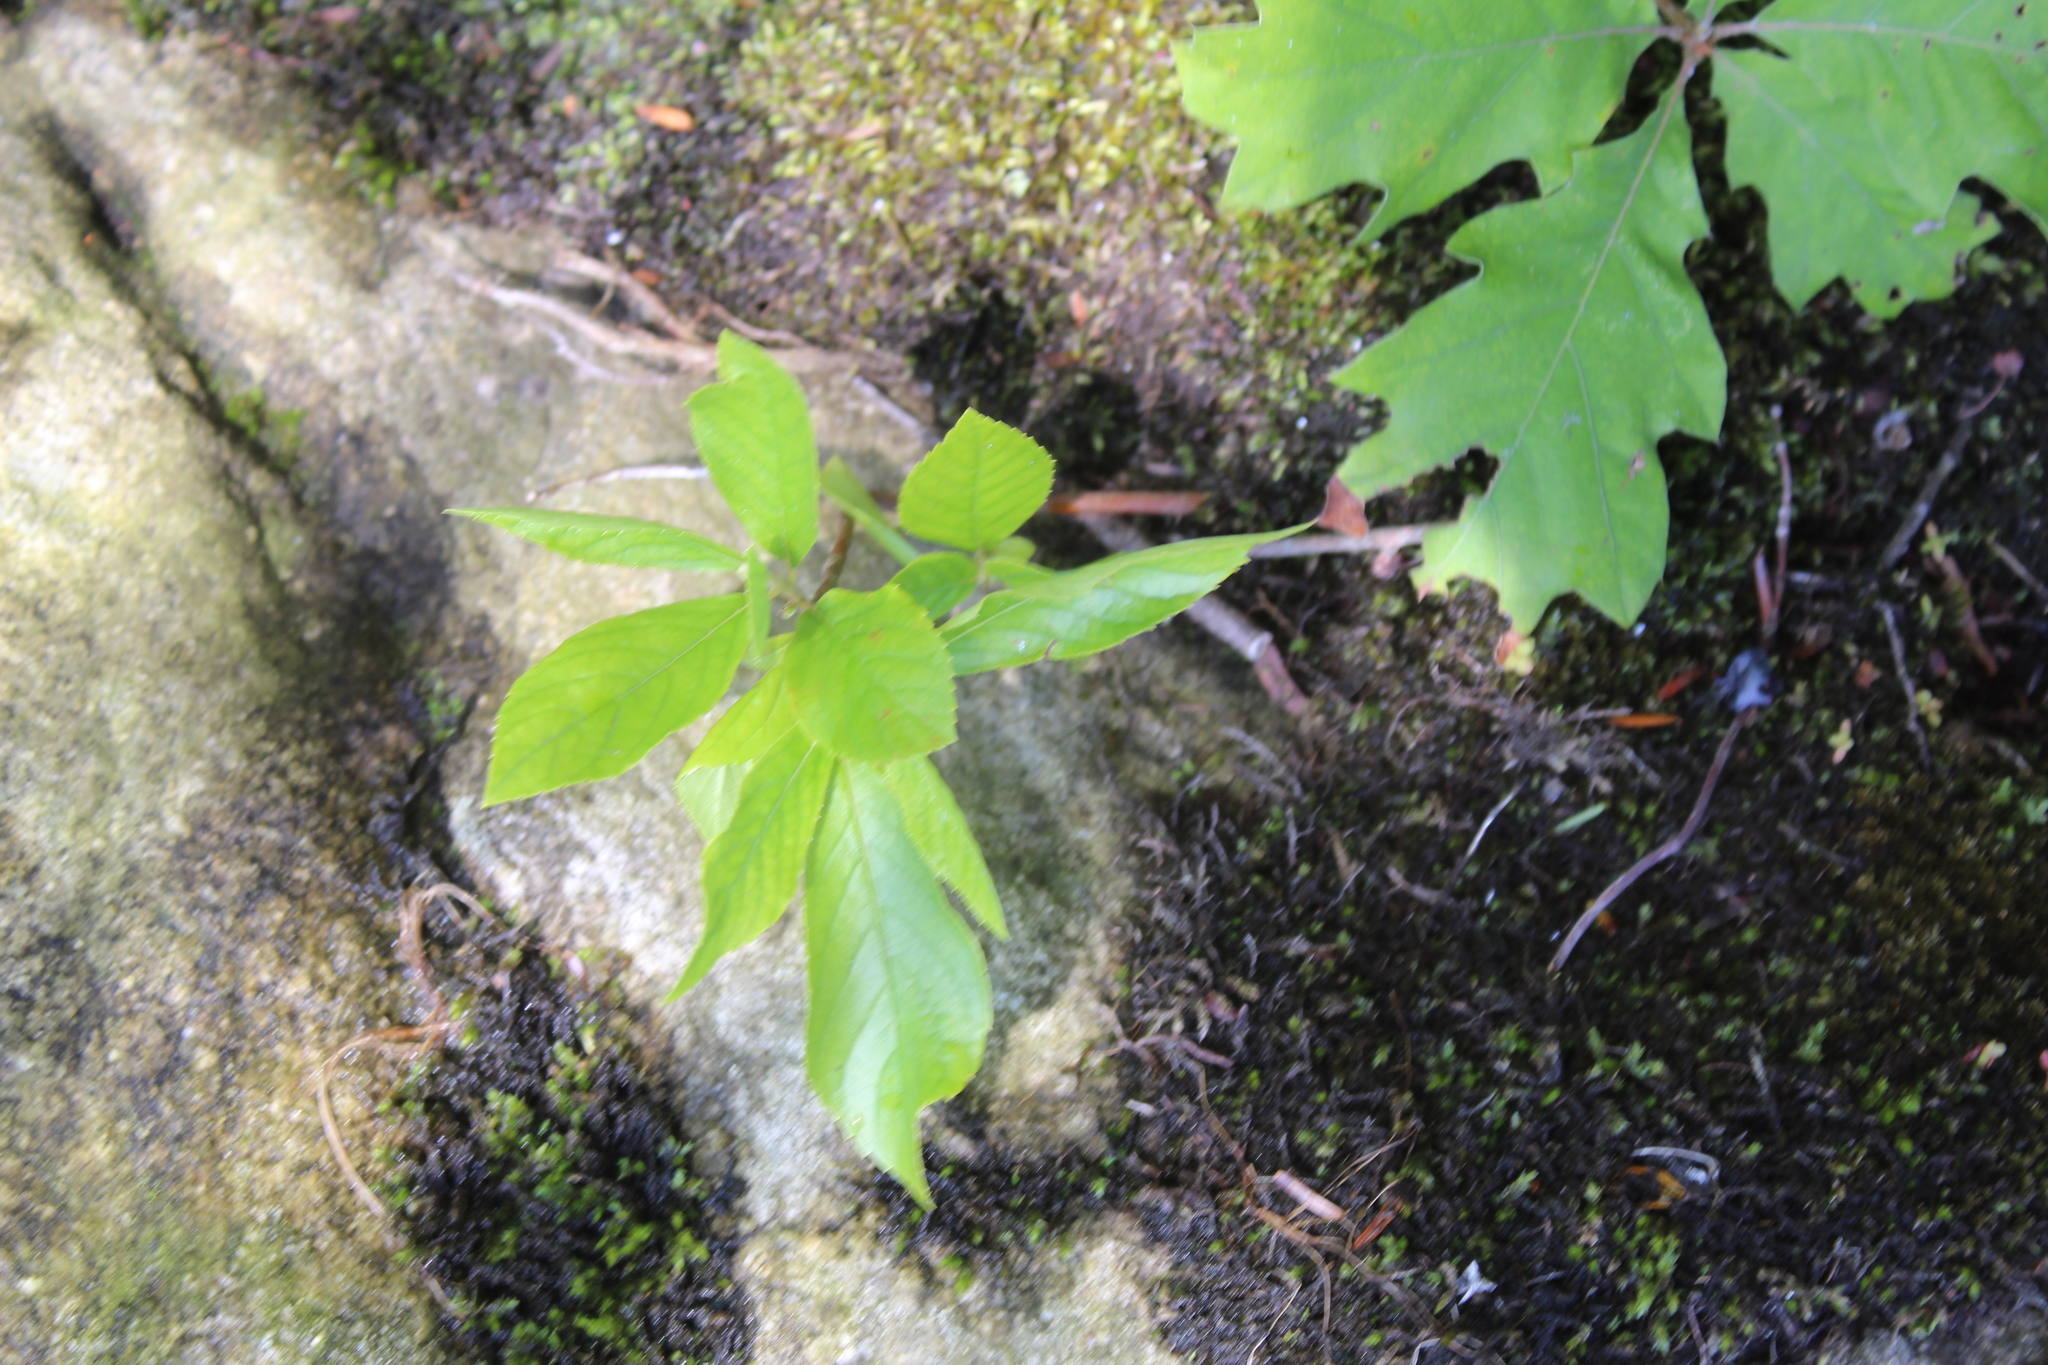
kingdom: Plantae
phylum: Tracheophyta
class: Magnoliopsida
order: Ericales
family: Clethraceae
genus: Clethra
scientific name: Clethra alnifolia
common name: Sweet pepperbush
